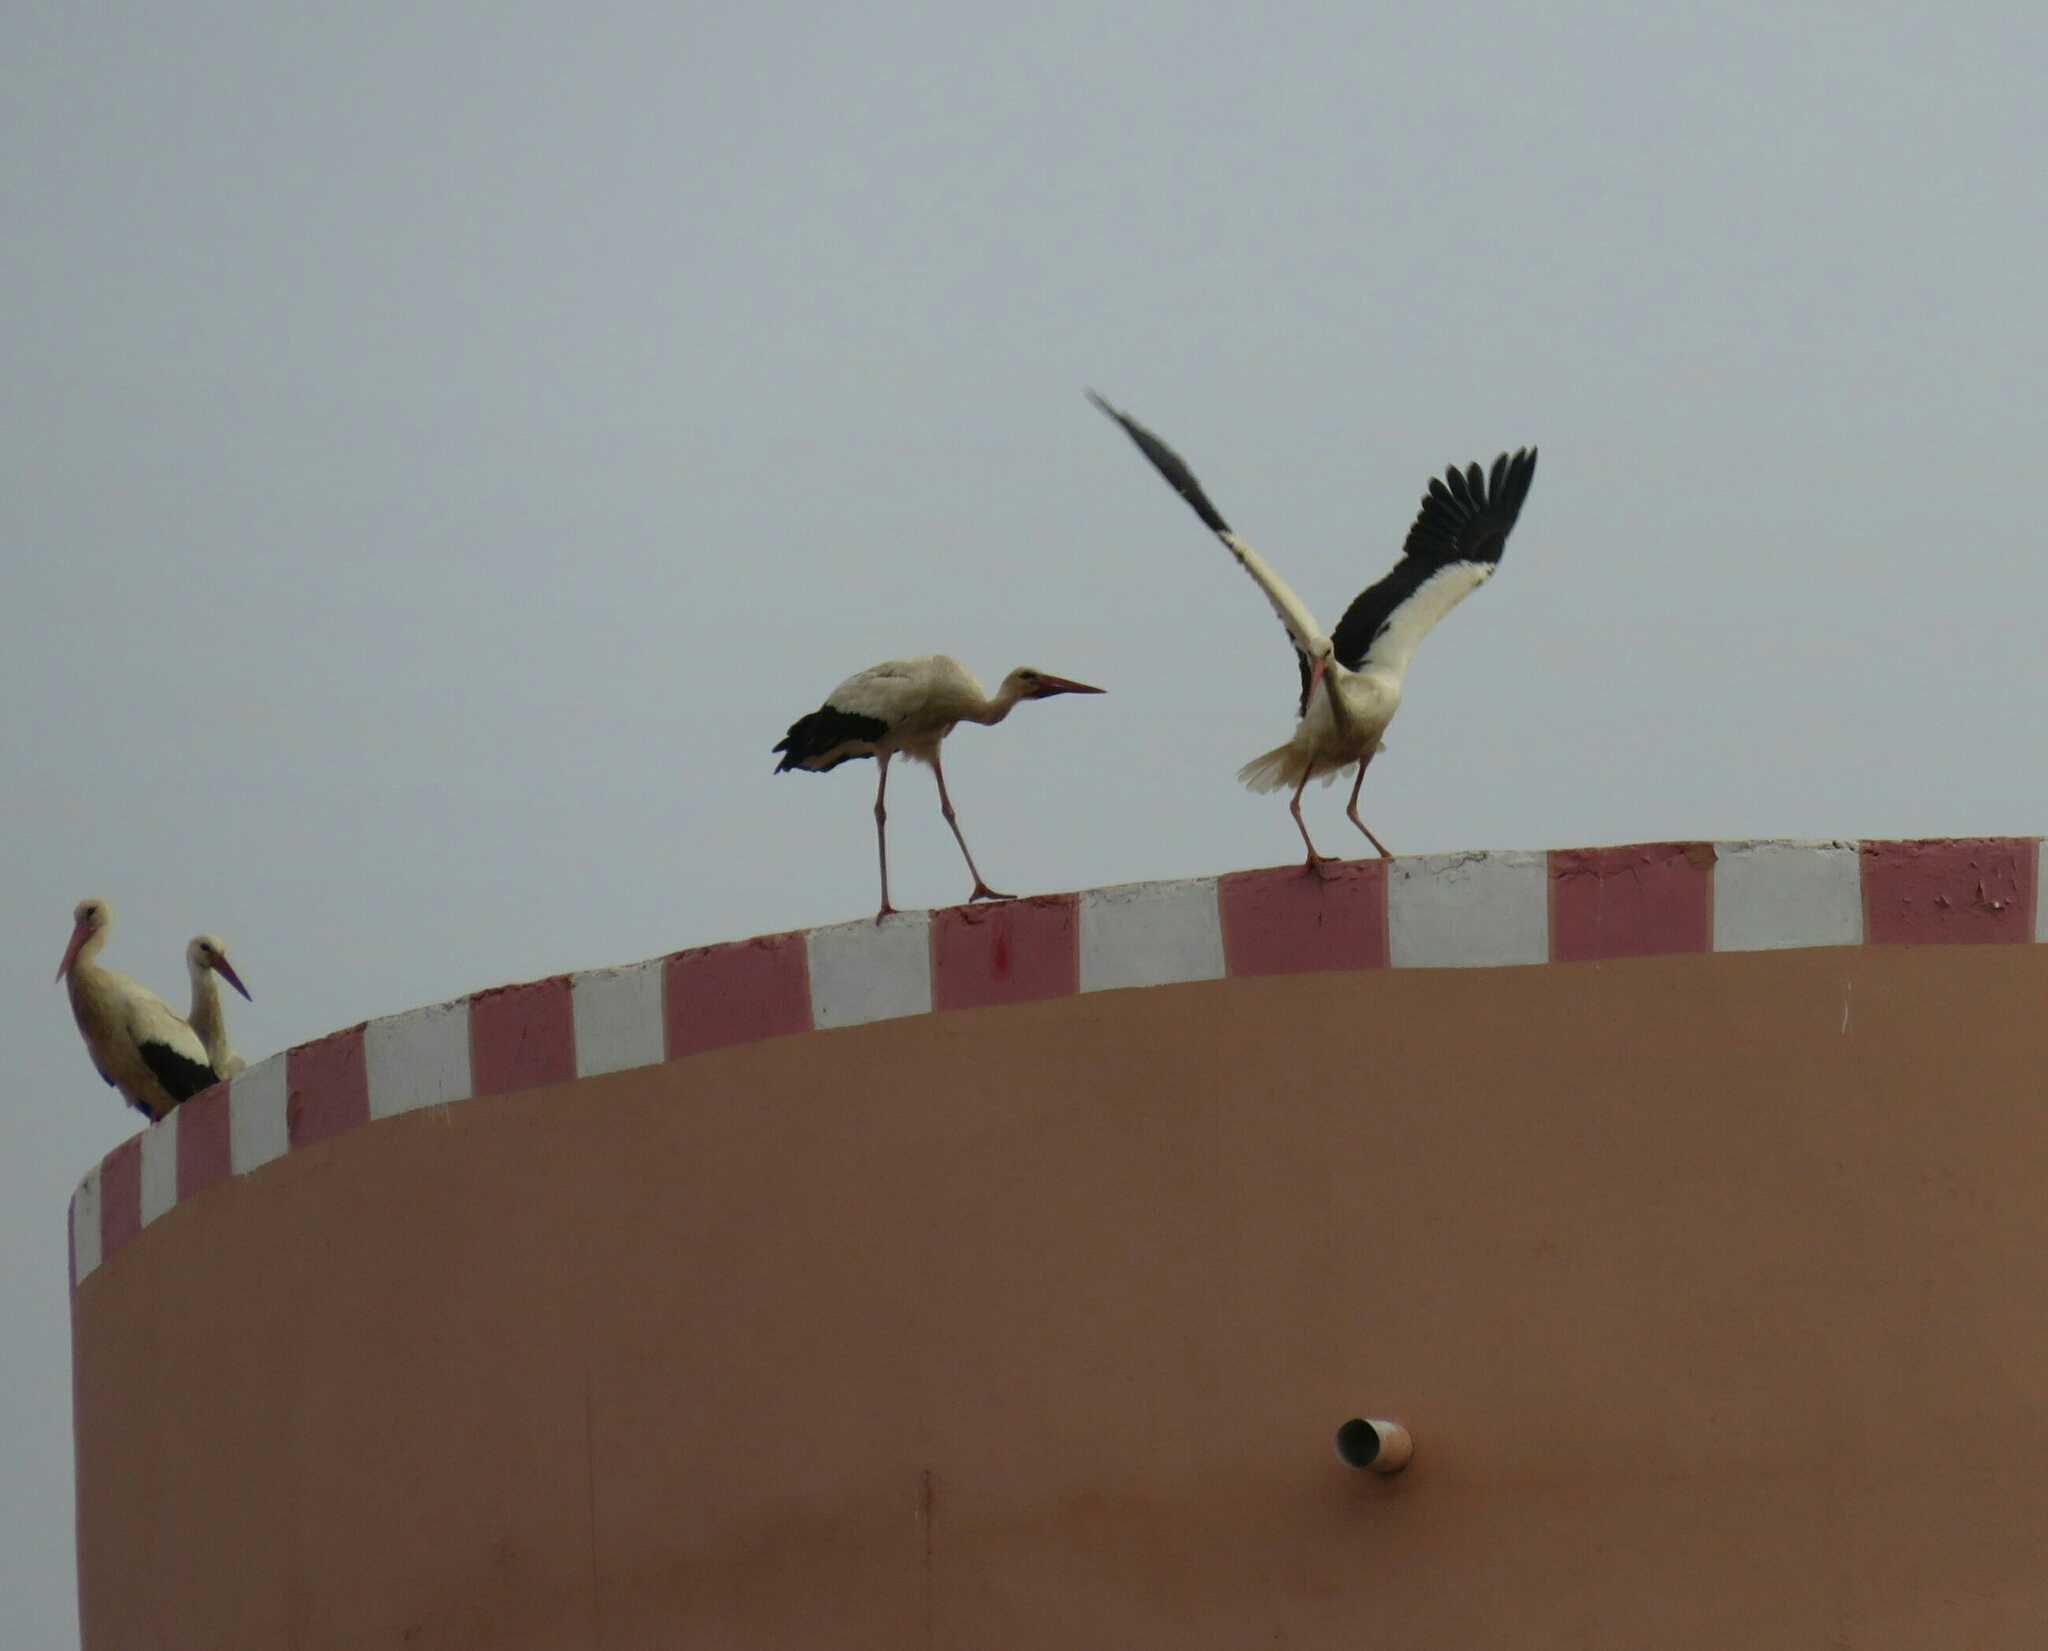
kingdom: Animalia
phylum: Chordata
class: Aves
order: Ciconiiformes
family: Ciconiidae
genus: Ciconia
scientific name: Ciconia ciconia
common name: White stork
